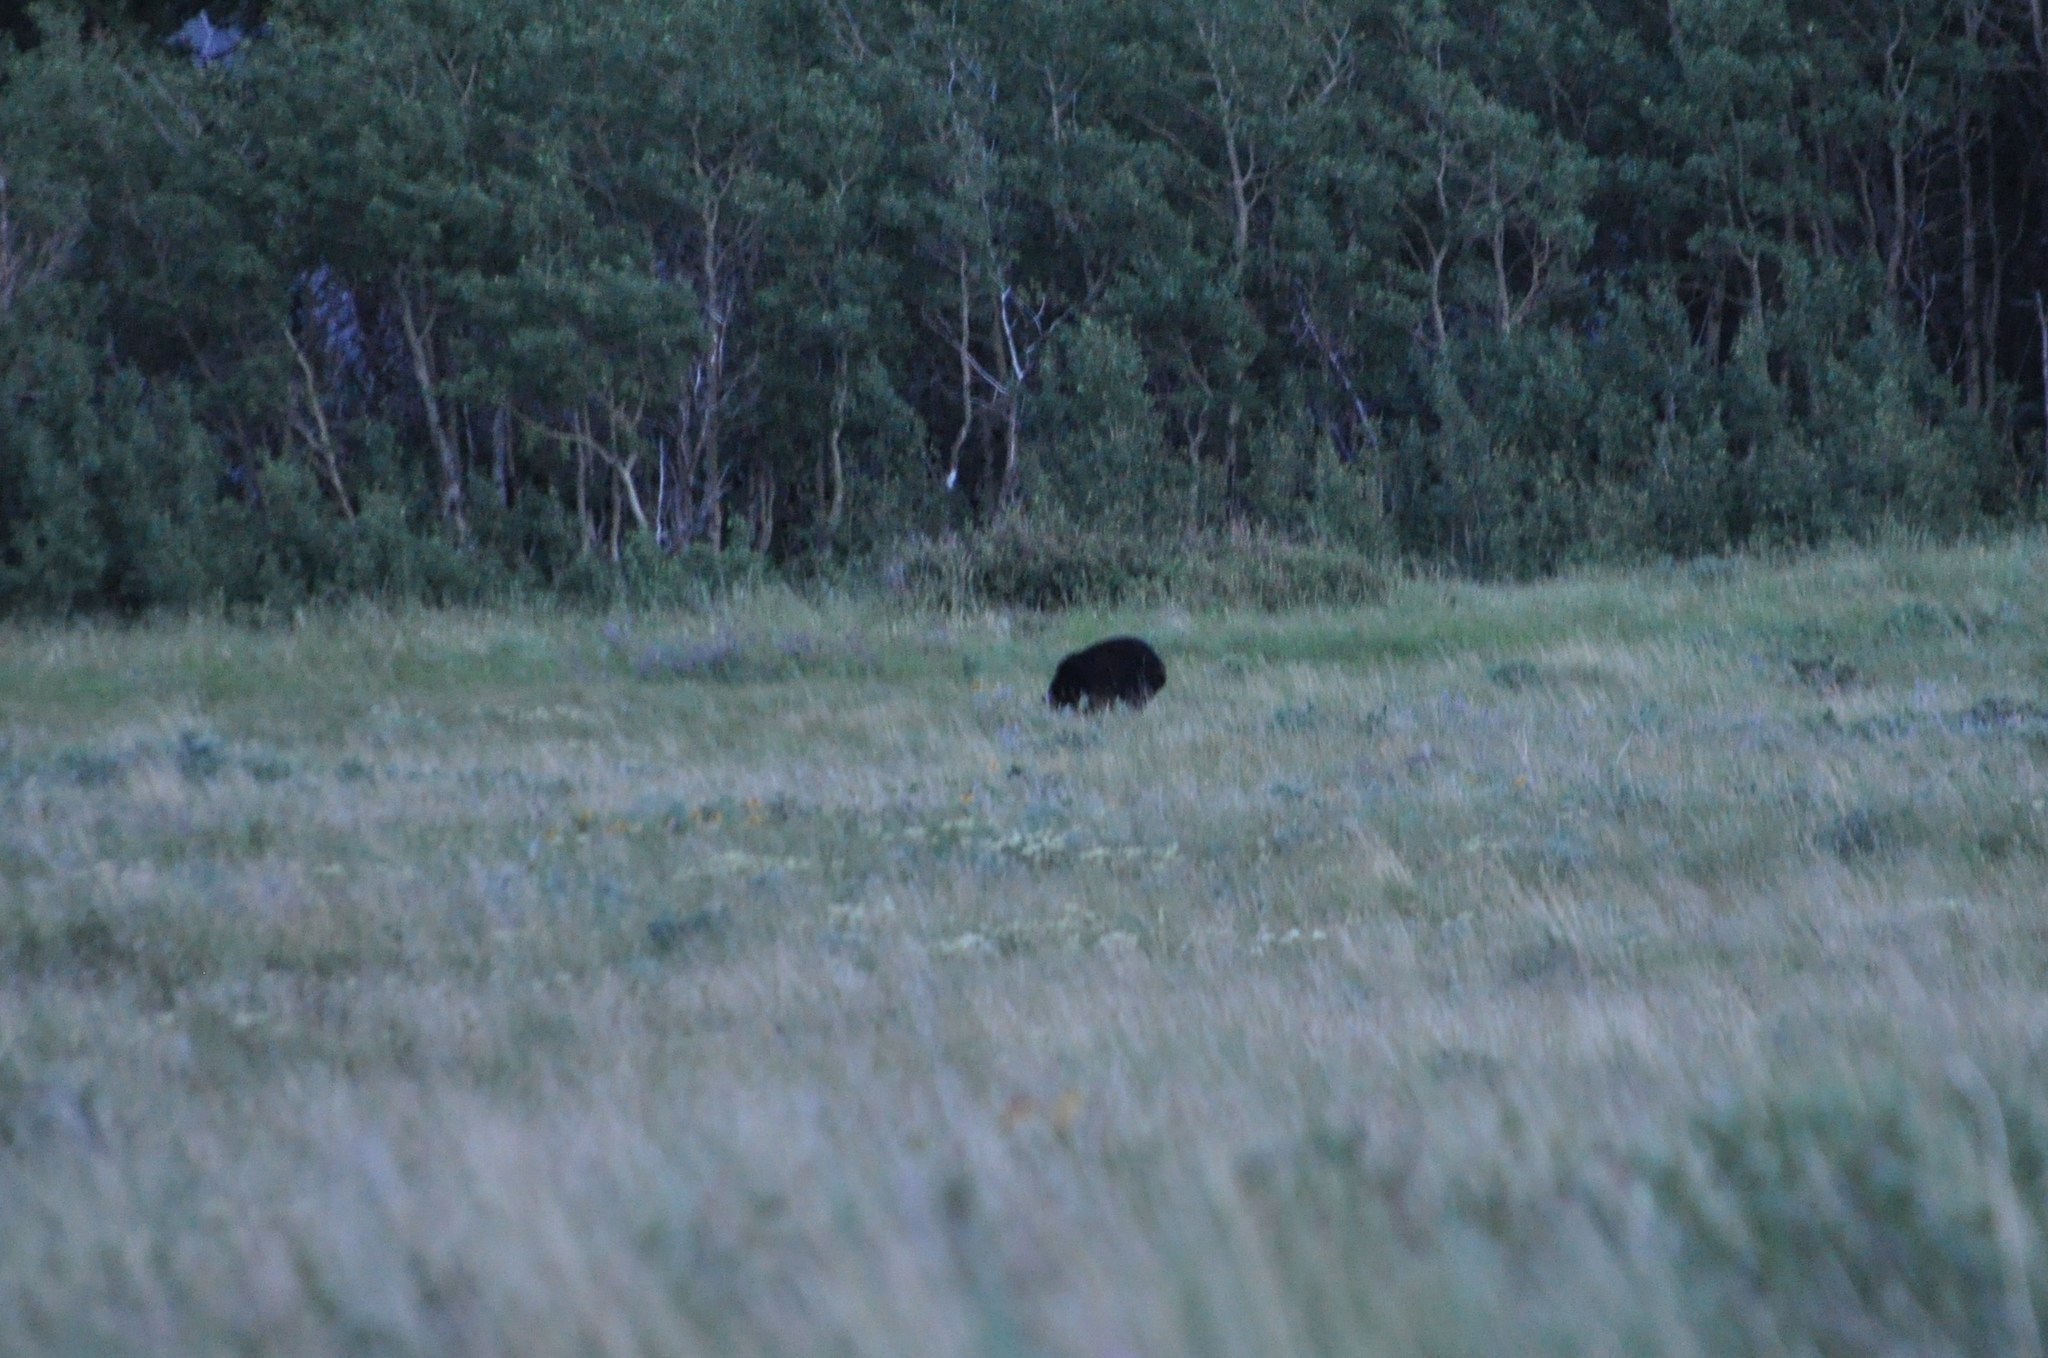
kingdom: Animalia
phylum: Chordata
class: Mammalia
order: Carnivora
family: Ursidae
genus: Ursus
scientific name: Ursus americanus
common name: American black bear
